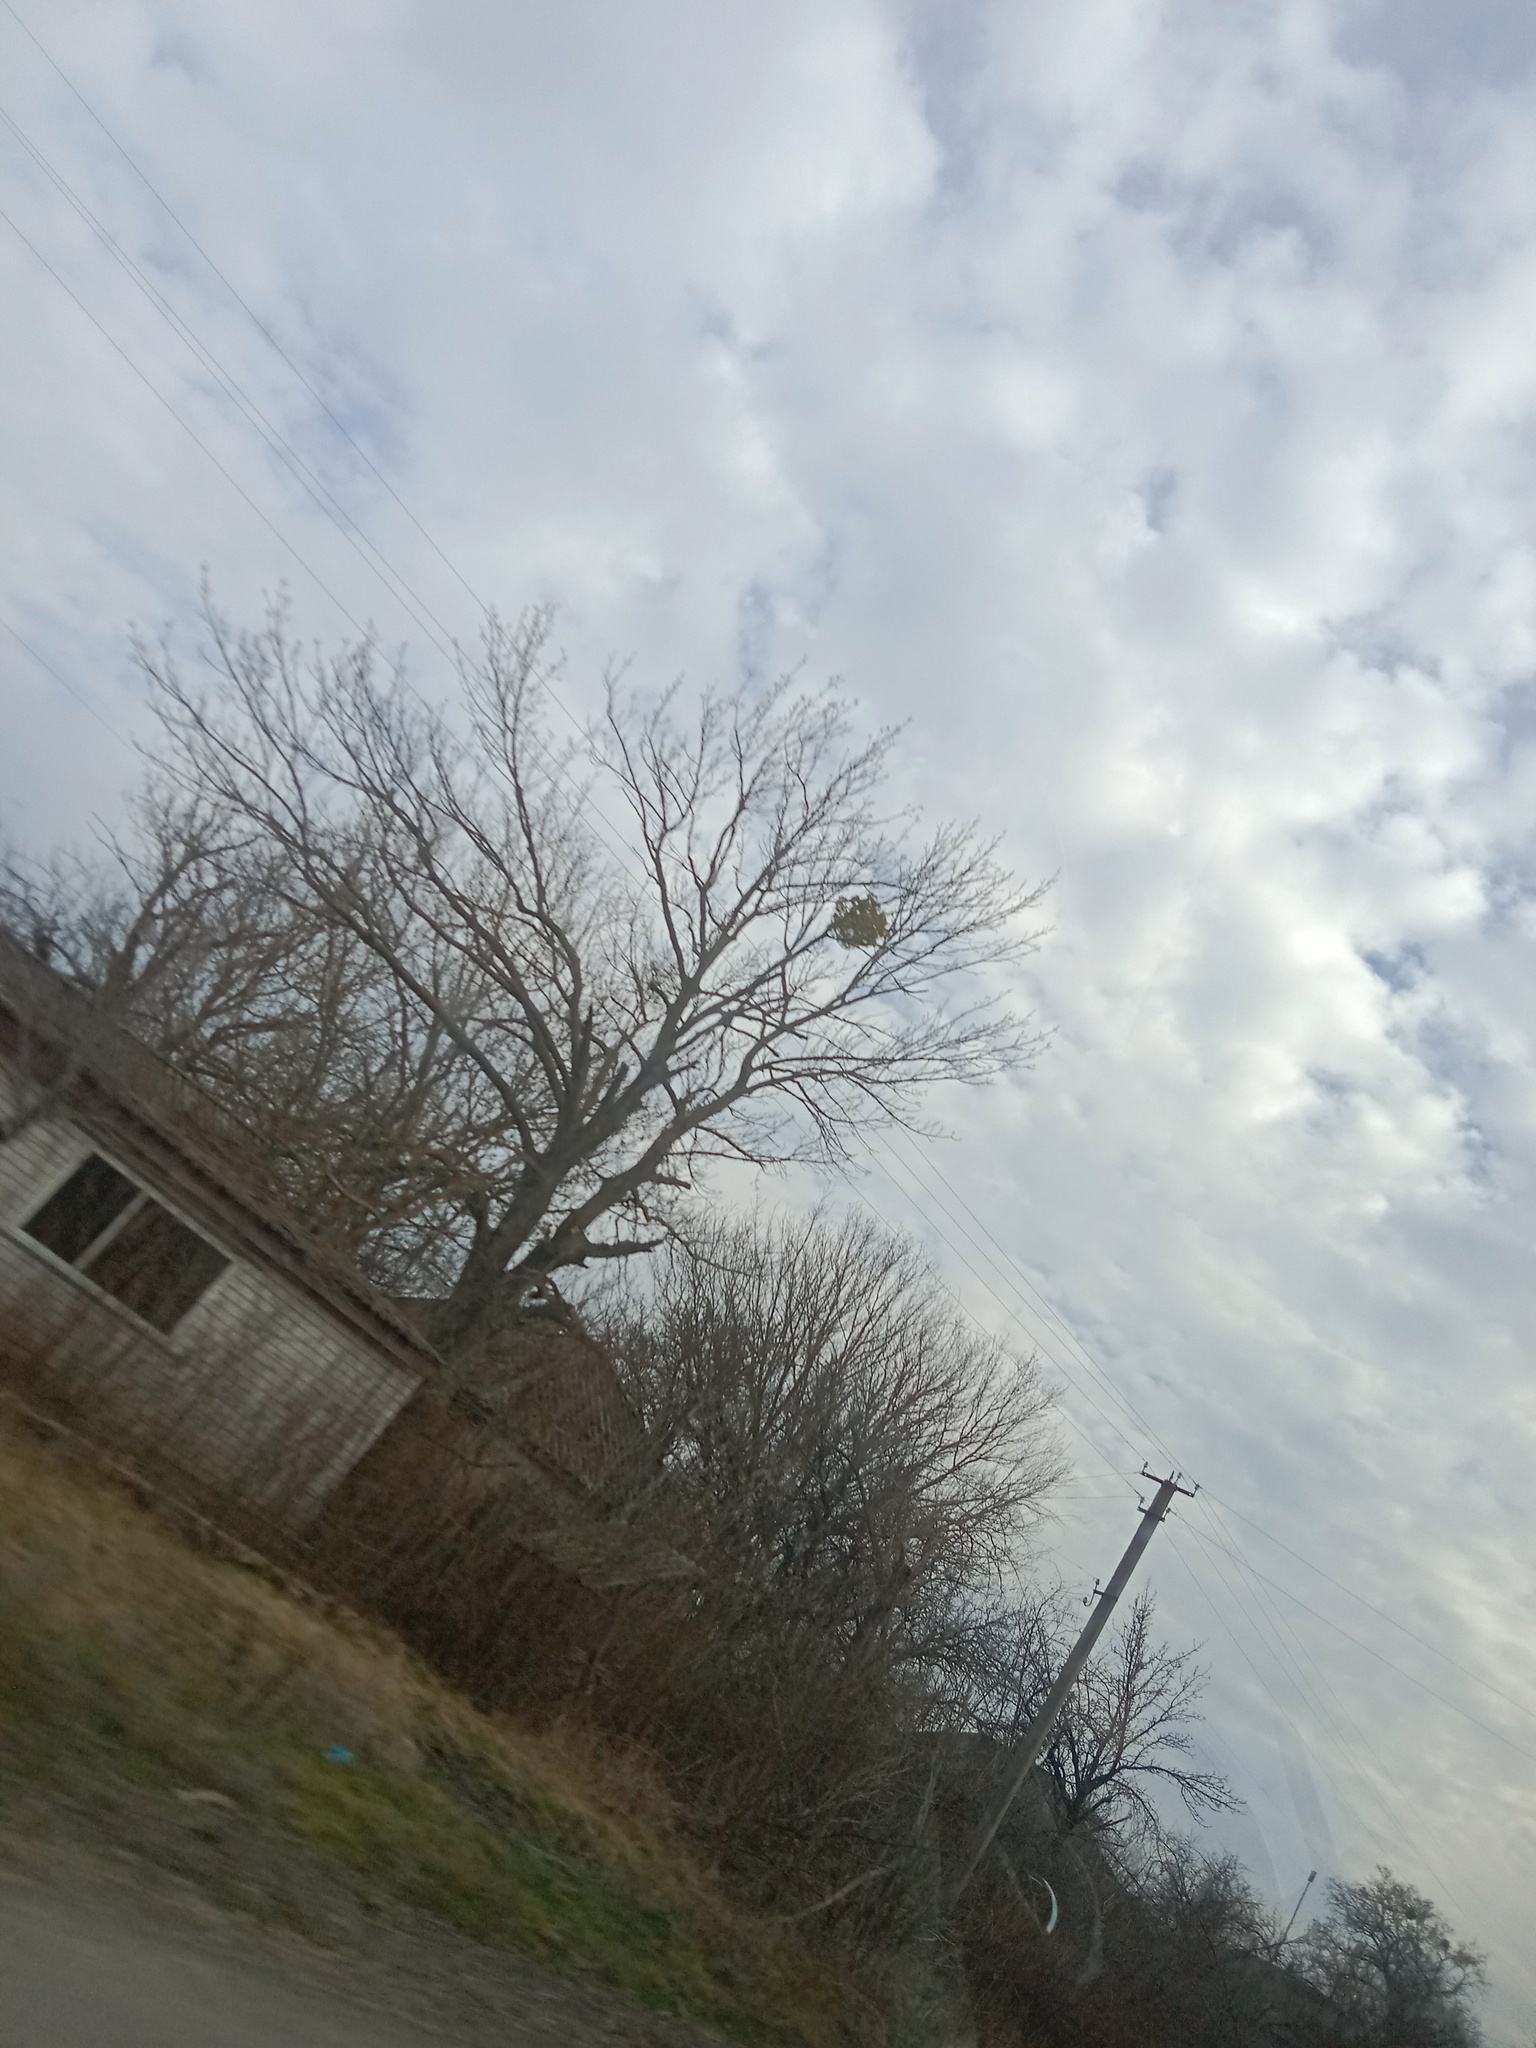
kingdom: Plantae
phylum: Tracheophyta
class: Magnoliopsida
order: Santalales
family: Viscaceae
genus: Viscum
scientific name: Viscum album
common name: Mistletoe
